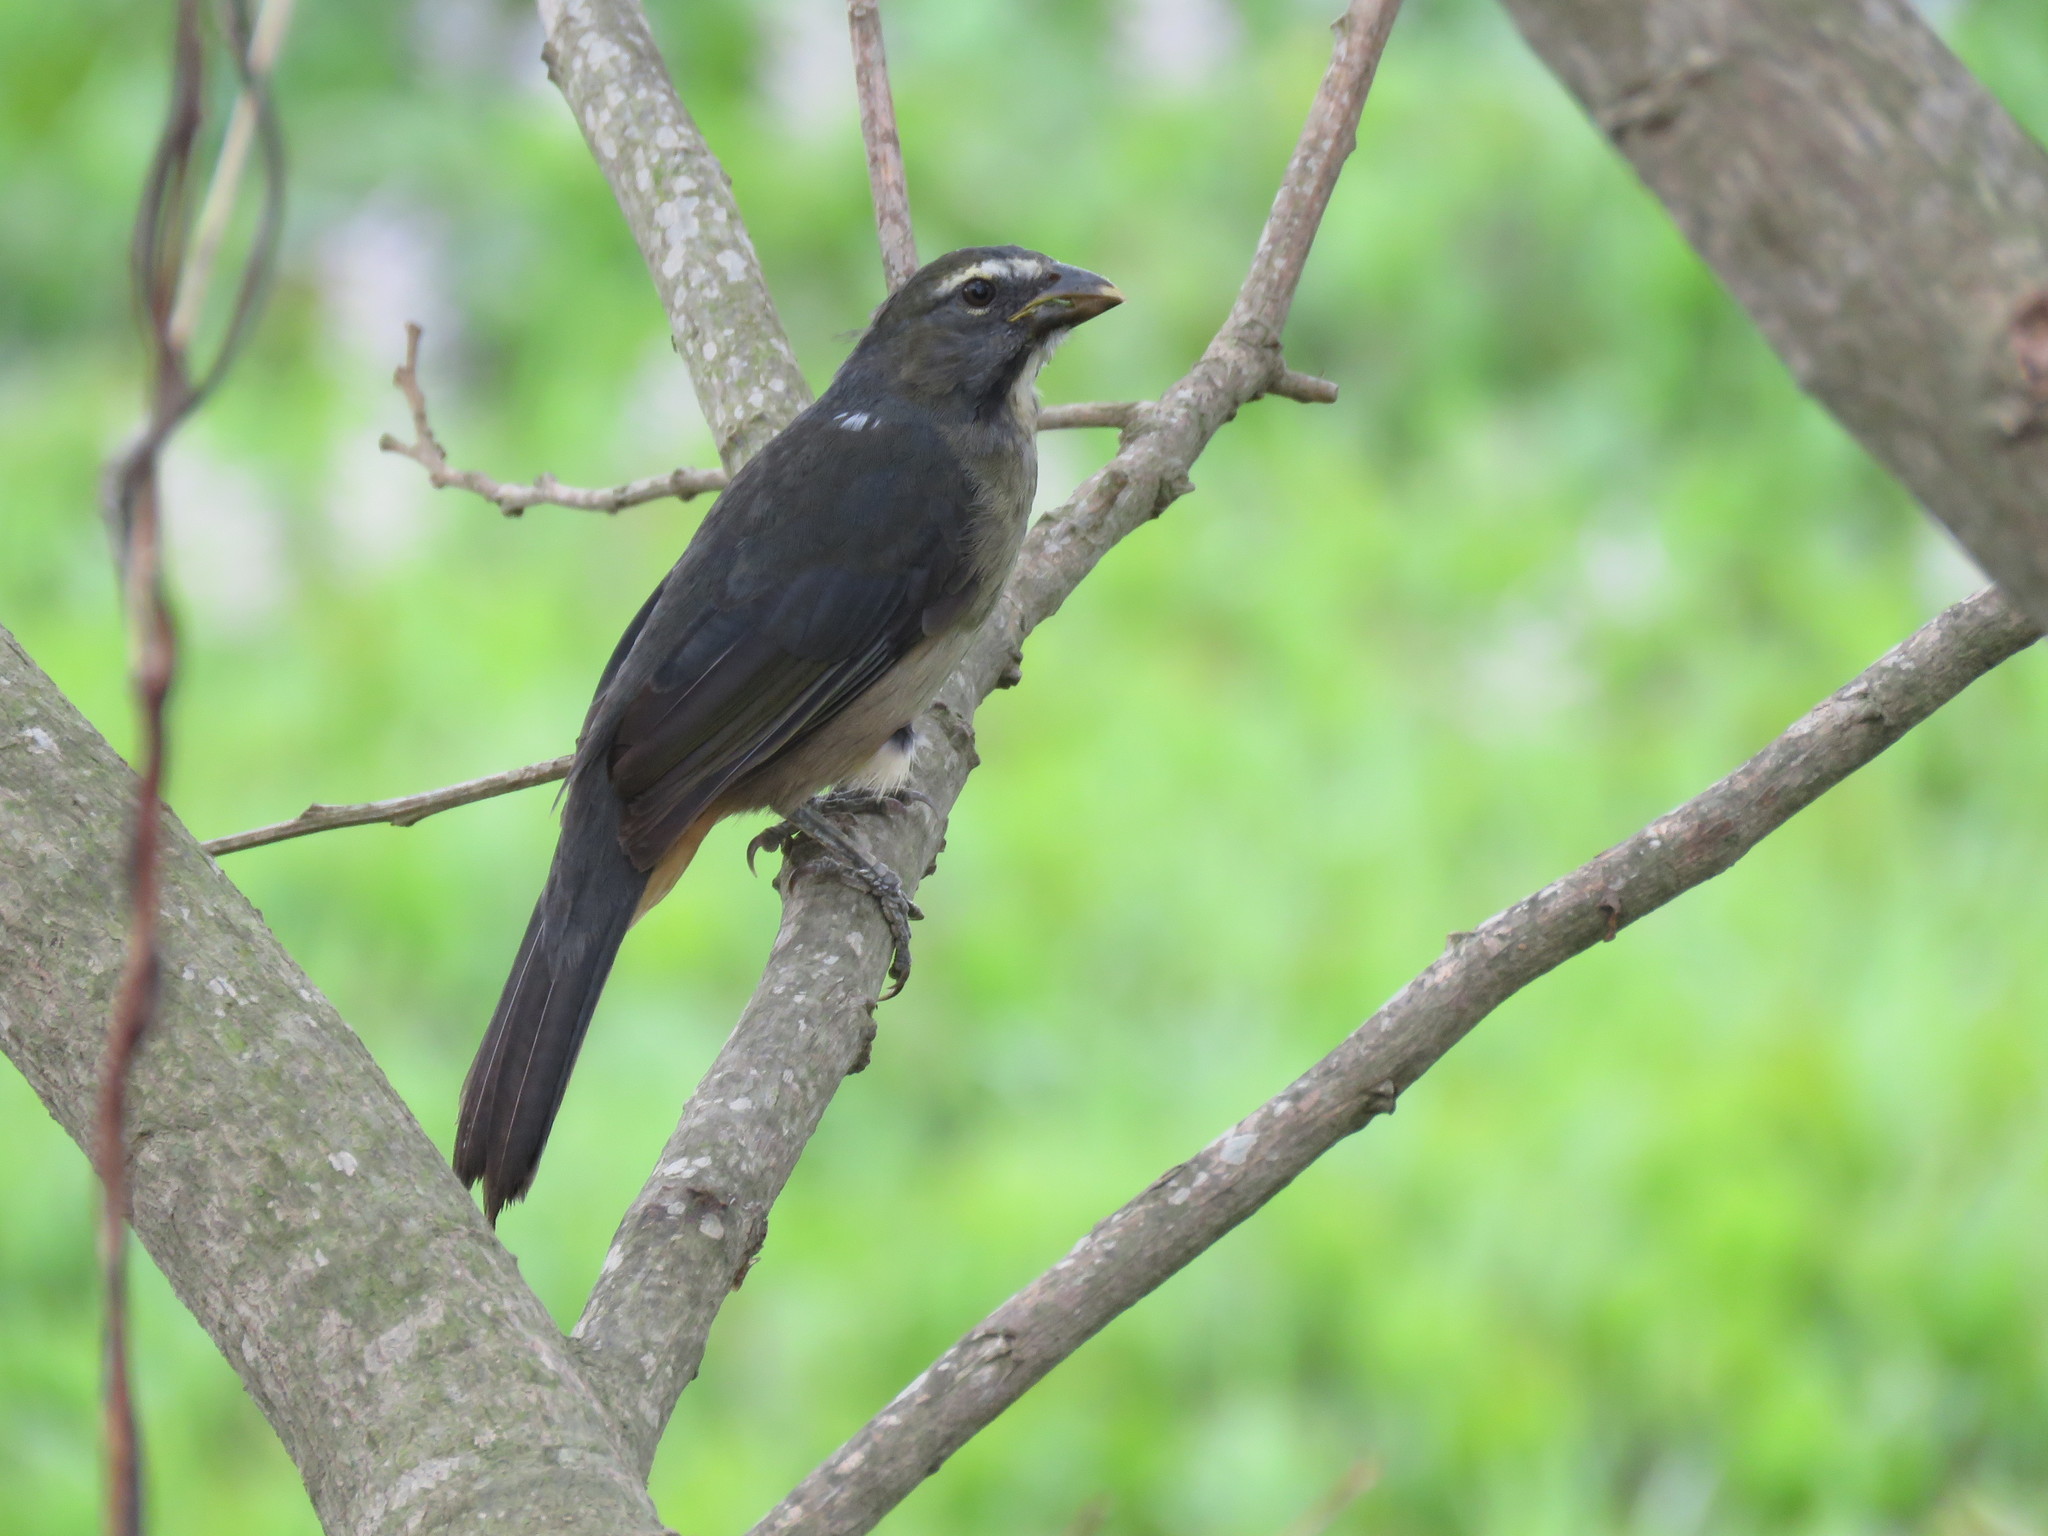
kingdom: Animalia
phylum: Chordata
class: Aves
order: Passeriformes
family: Thraupidae
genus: Saltator
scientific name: Saltator coerulescens
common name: Grayish saltator
